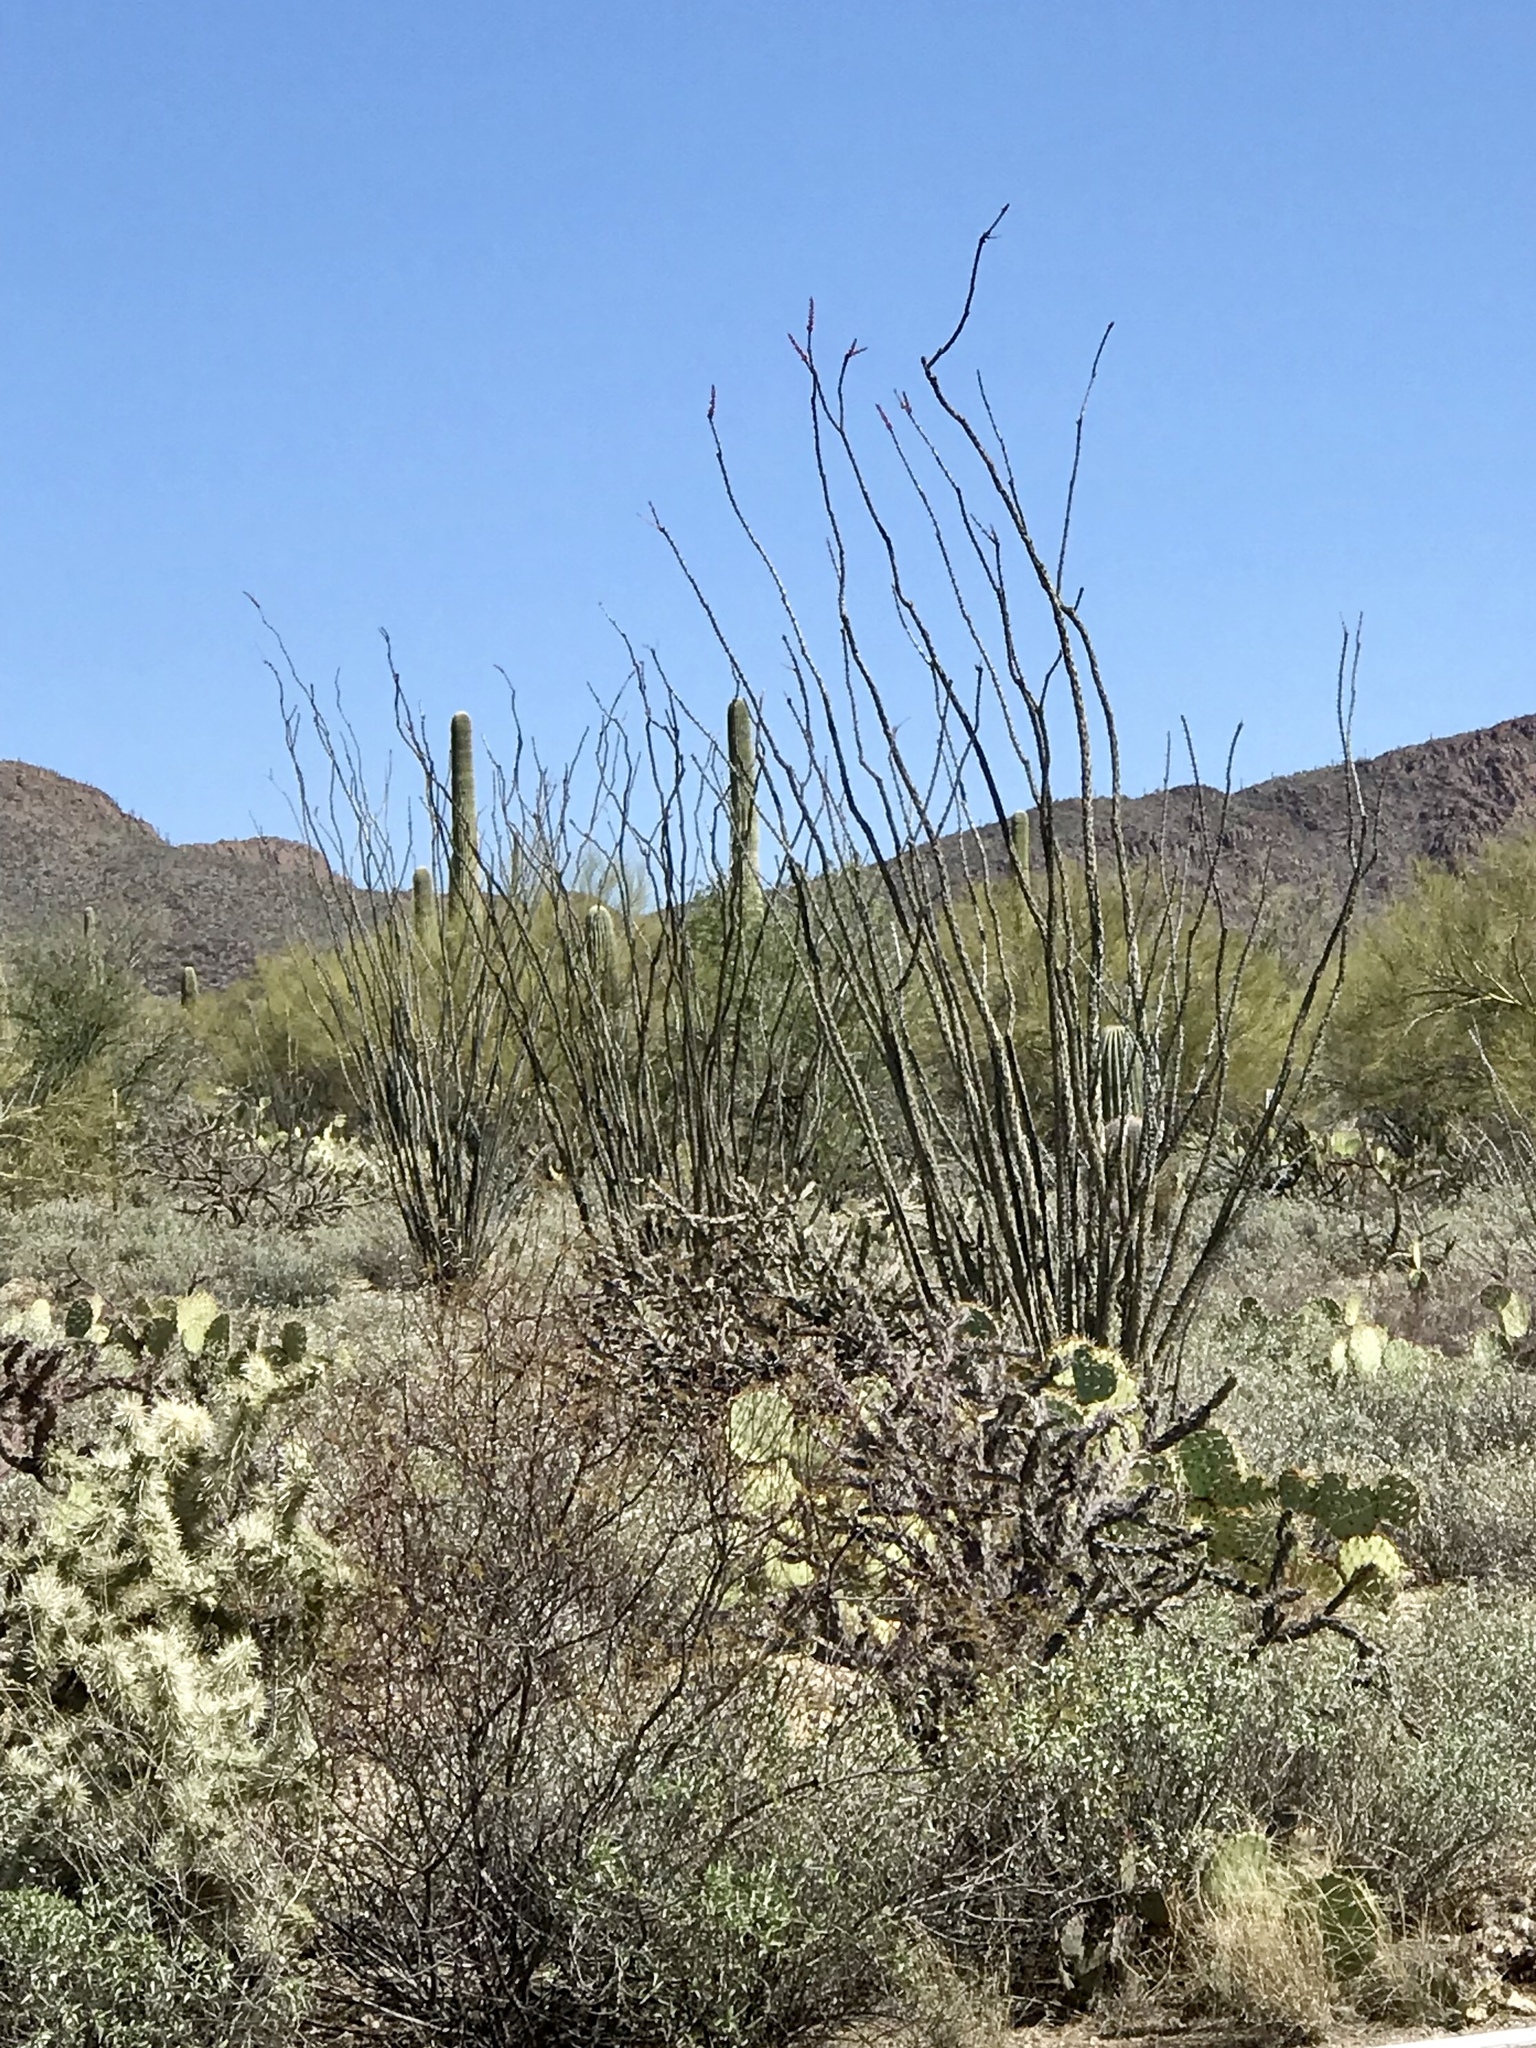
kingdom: Plantae
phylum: Tracheophyta
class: Magnoliopsida
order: Ericales
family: Fouquieriaceae
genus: Fouquieria
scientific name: Fouquieria splendens
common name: Vine-cactus
